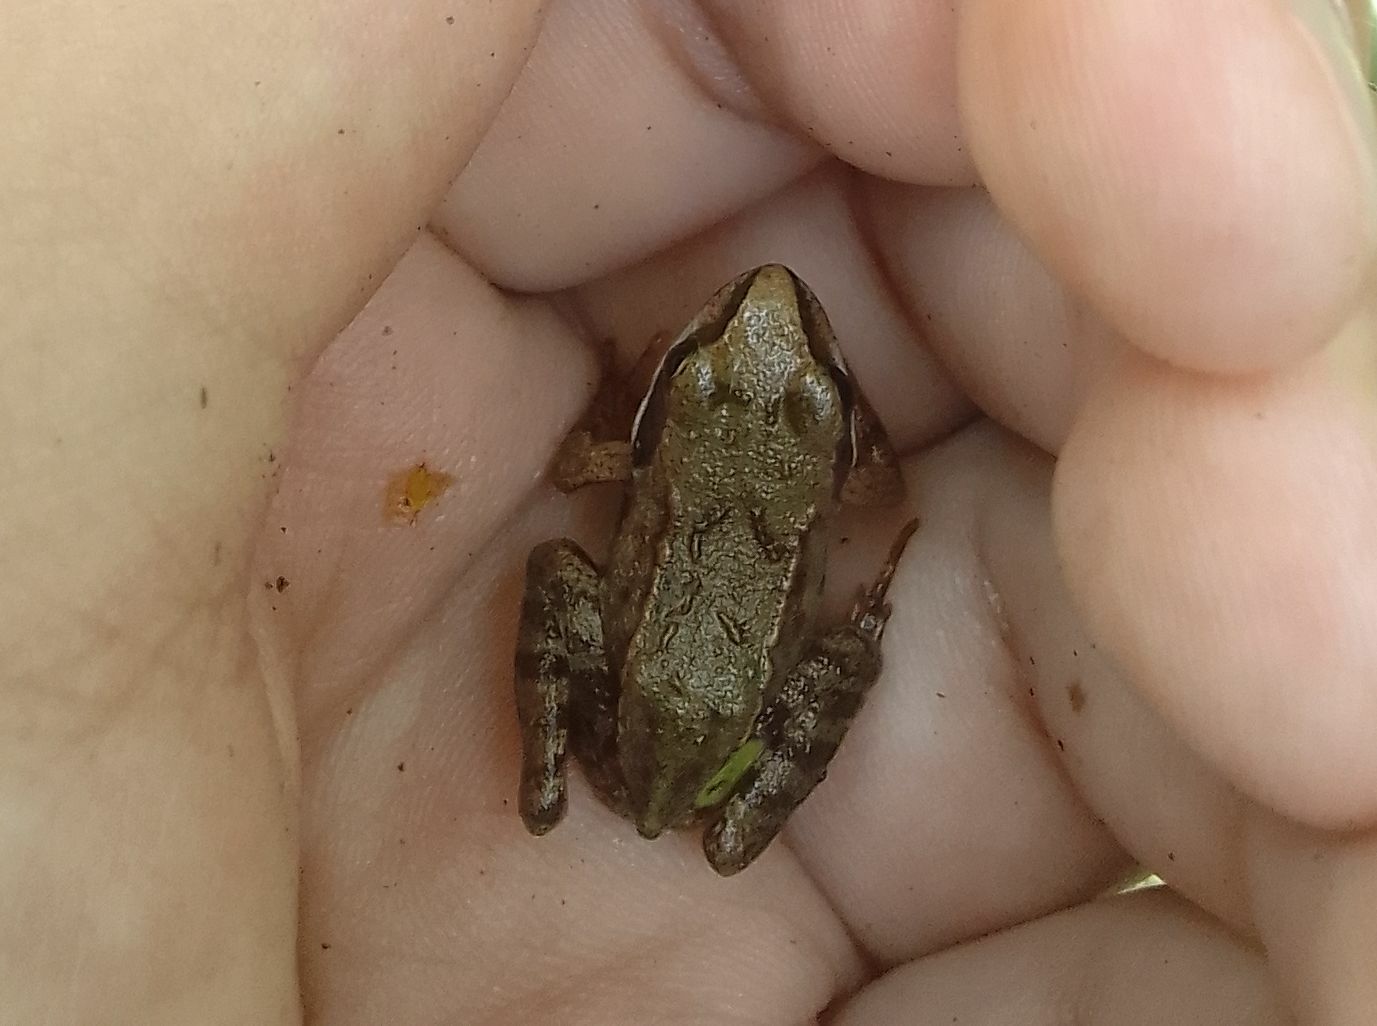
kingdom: Animalia
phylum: Chordata
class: Amphibia
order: Anura
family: Ranidae
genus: Rana
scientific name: Rana arvalis
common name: Moor frog
